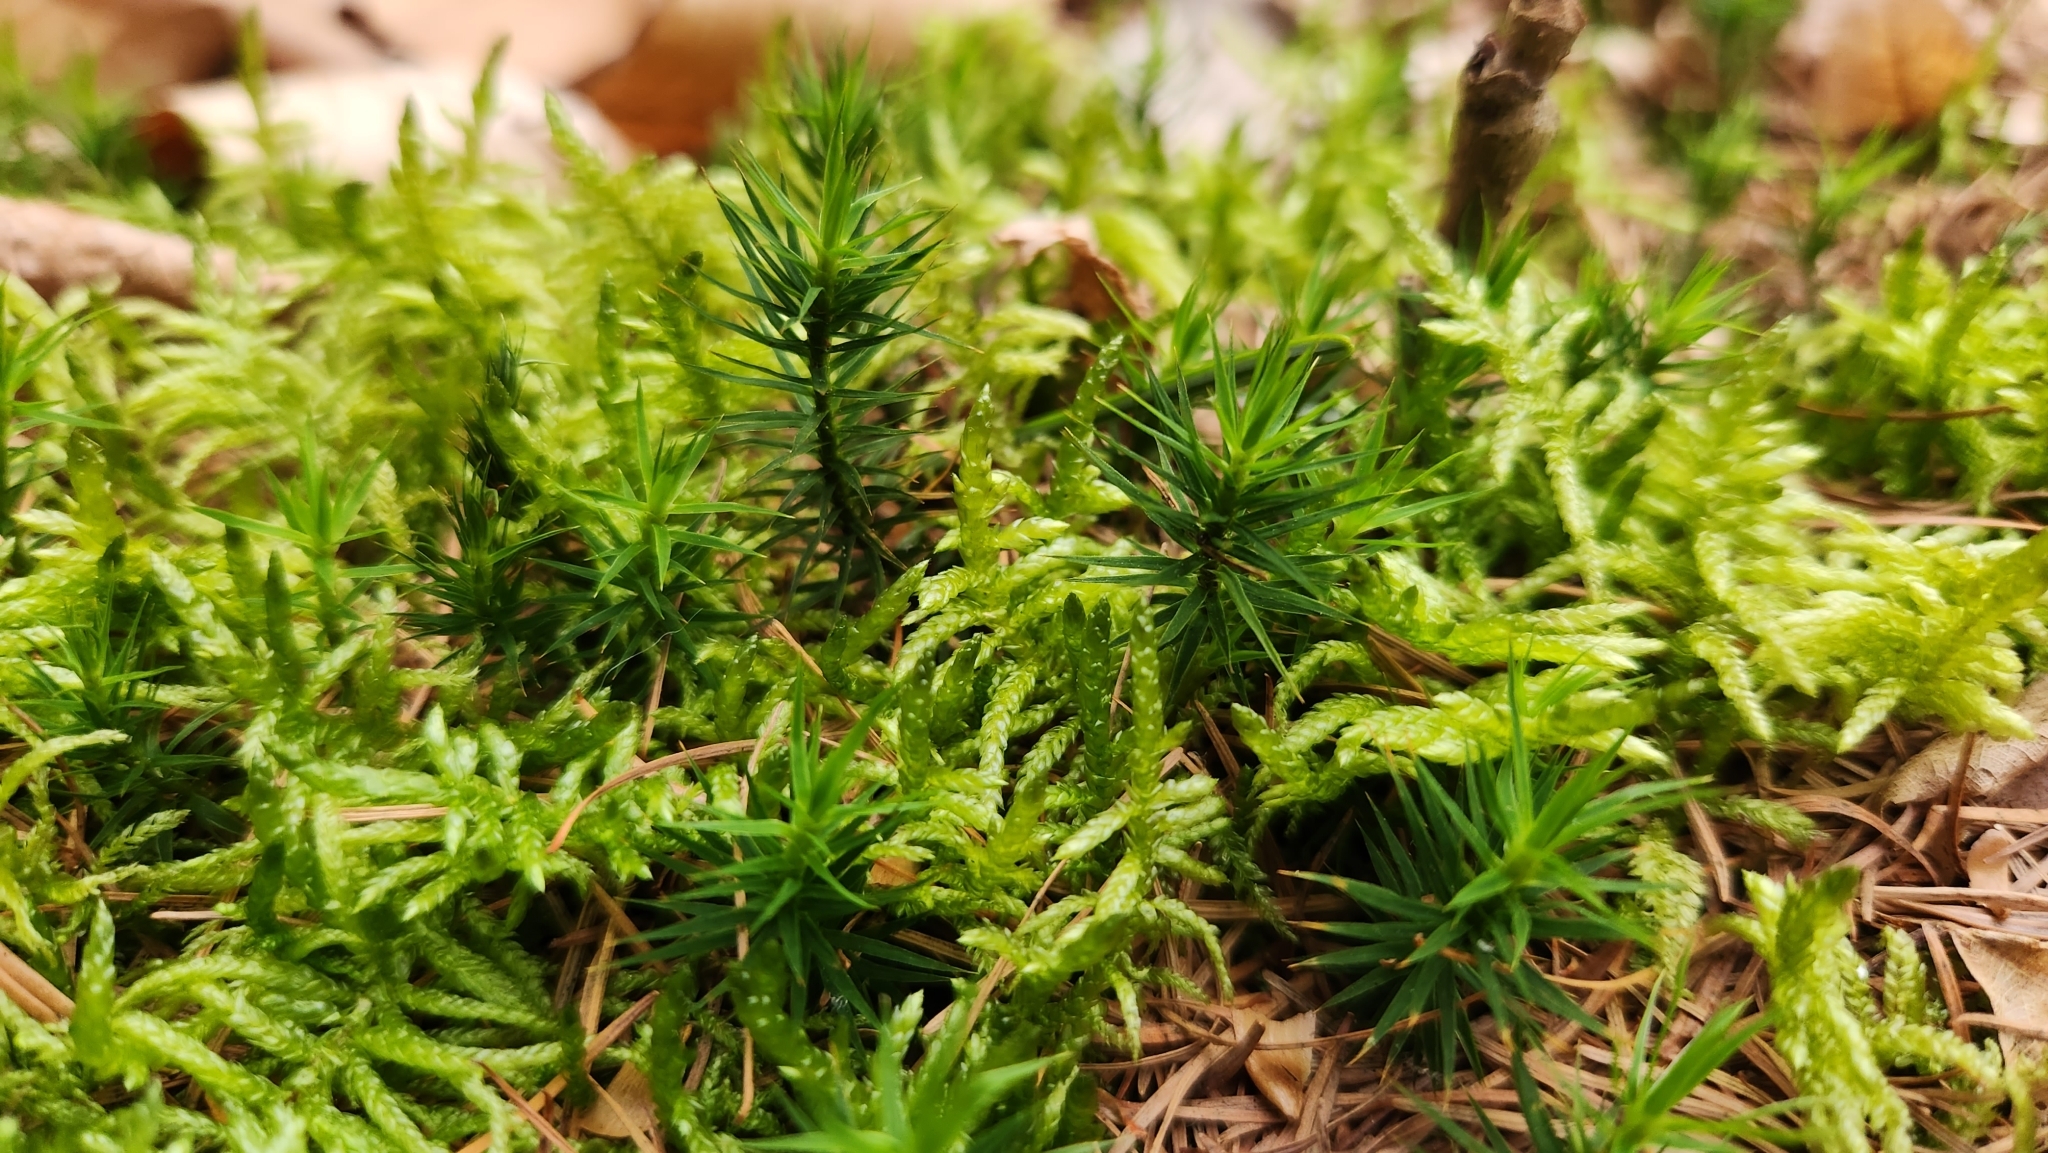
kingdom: Plantae
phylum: Bryophyta
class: Polytrichopsida
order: Polytrichales
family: Polytrichaceae
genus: Polytrichum
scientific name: Polytrichum formosum
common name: Bank haircap moss
